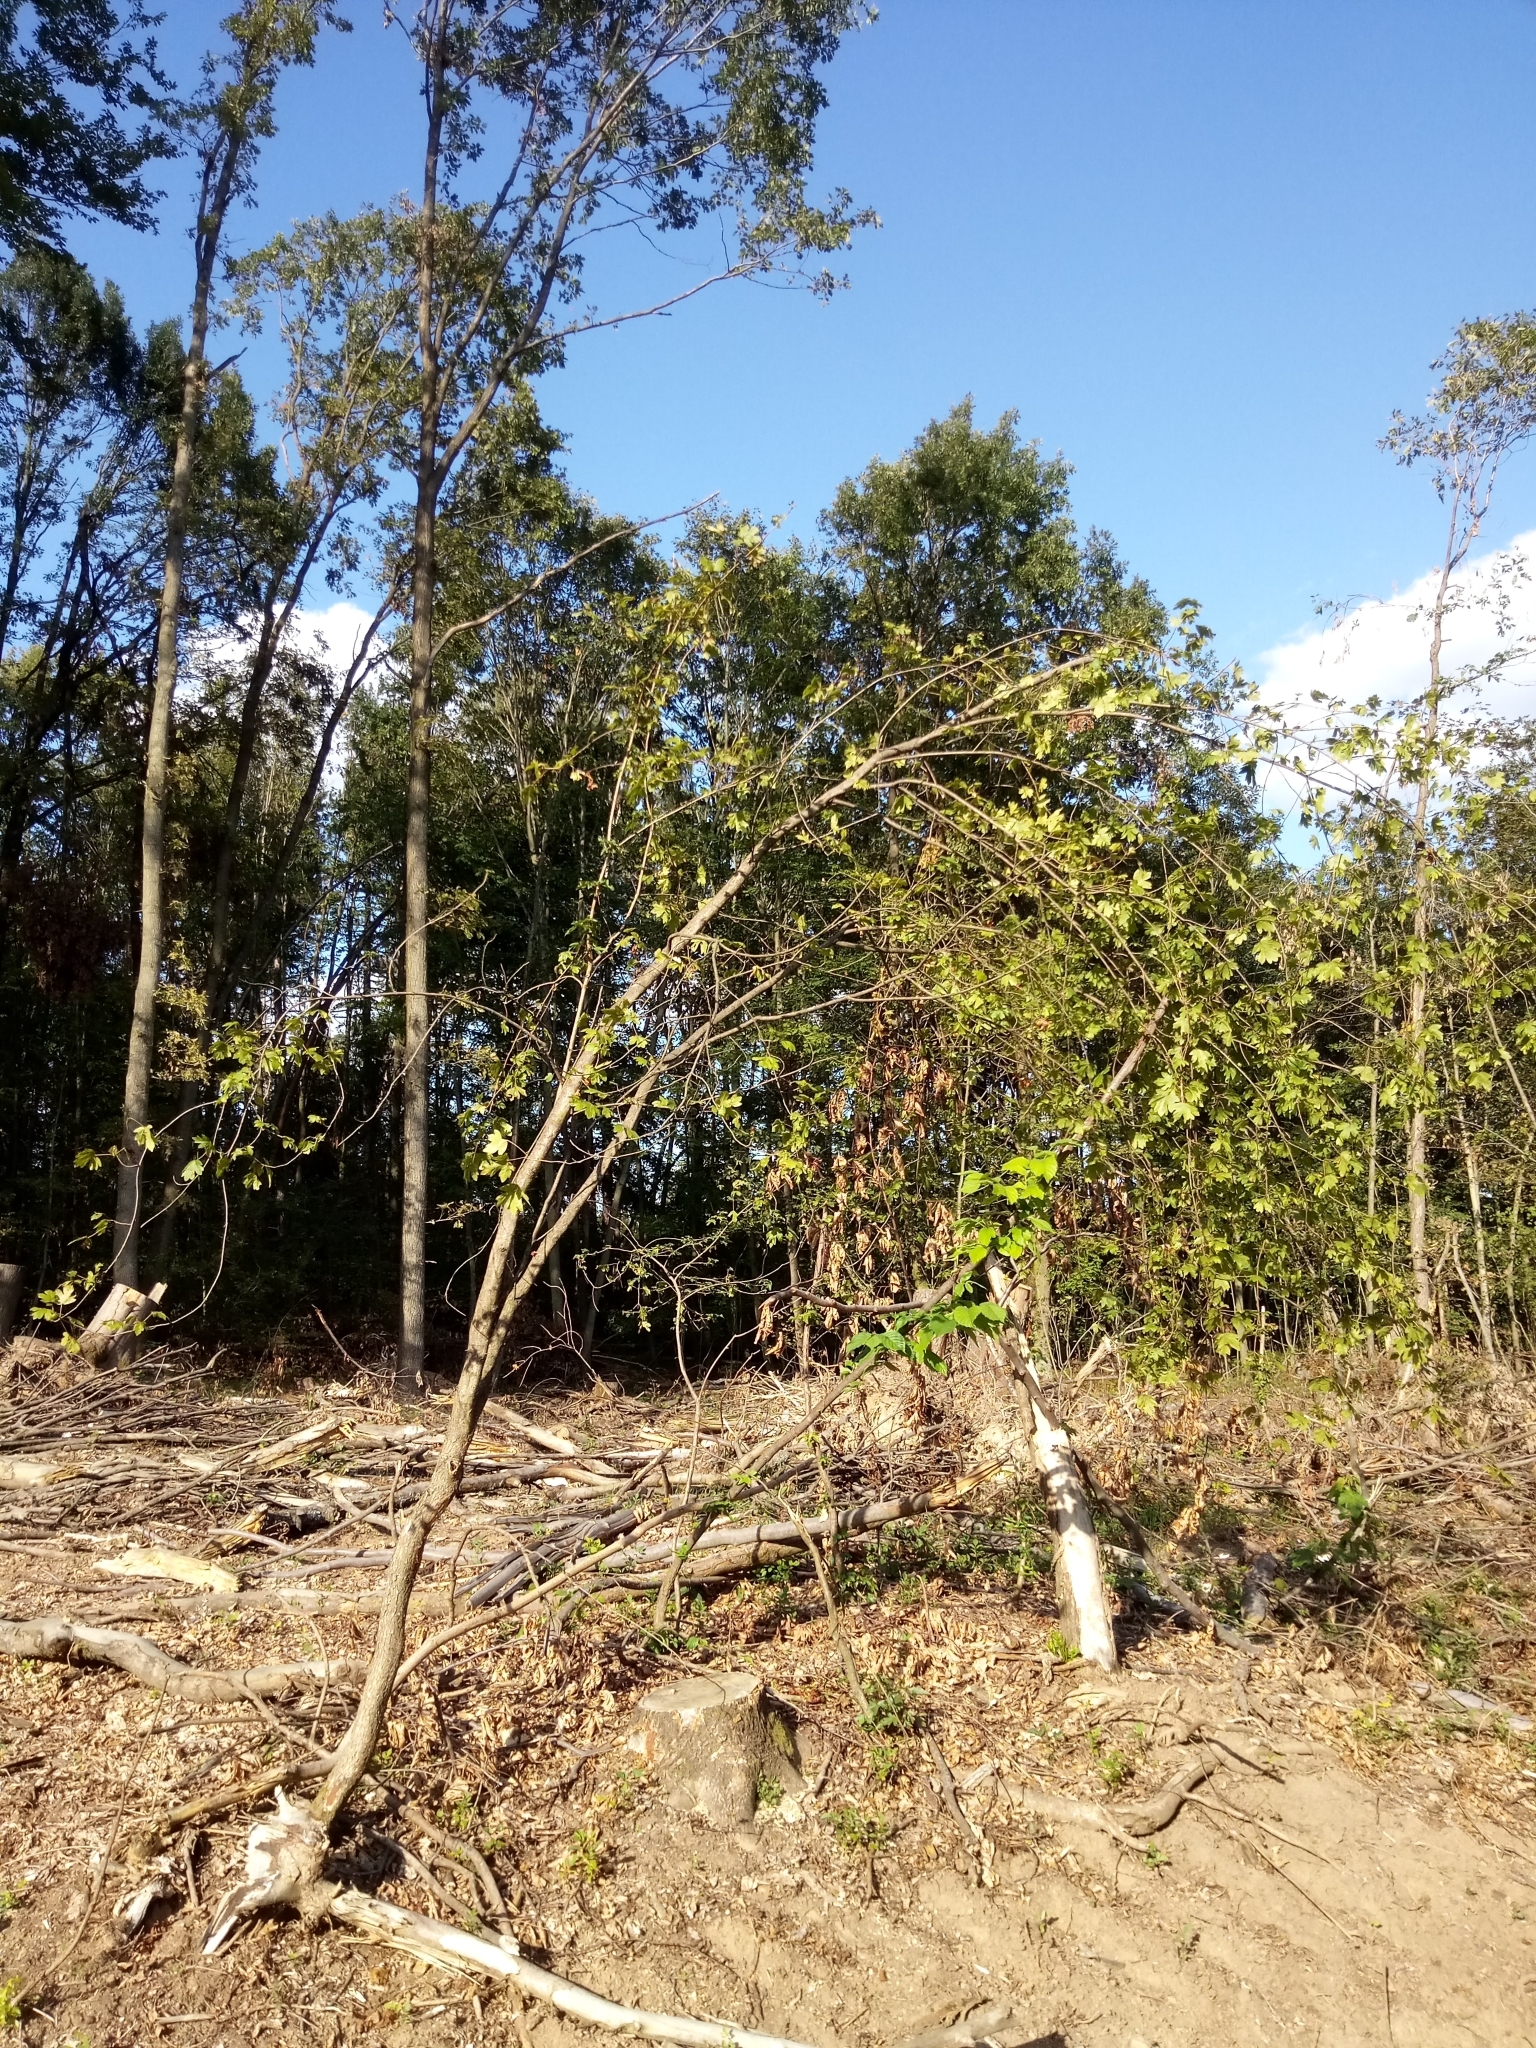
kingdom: Plantae
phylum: Tracheophyta
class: Magnoliopsida
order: Sapindales
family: Sapindaceae
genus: Acer
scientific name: Acer campestre
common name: Field maple
